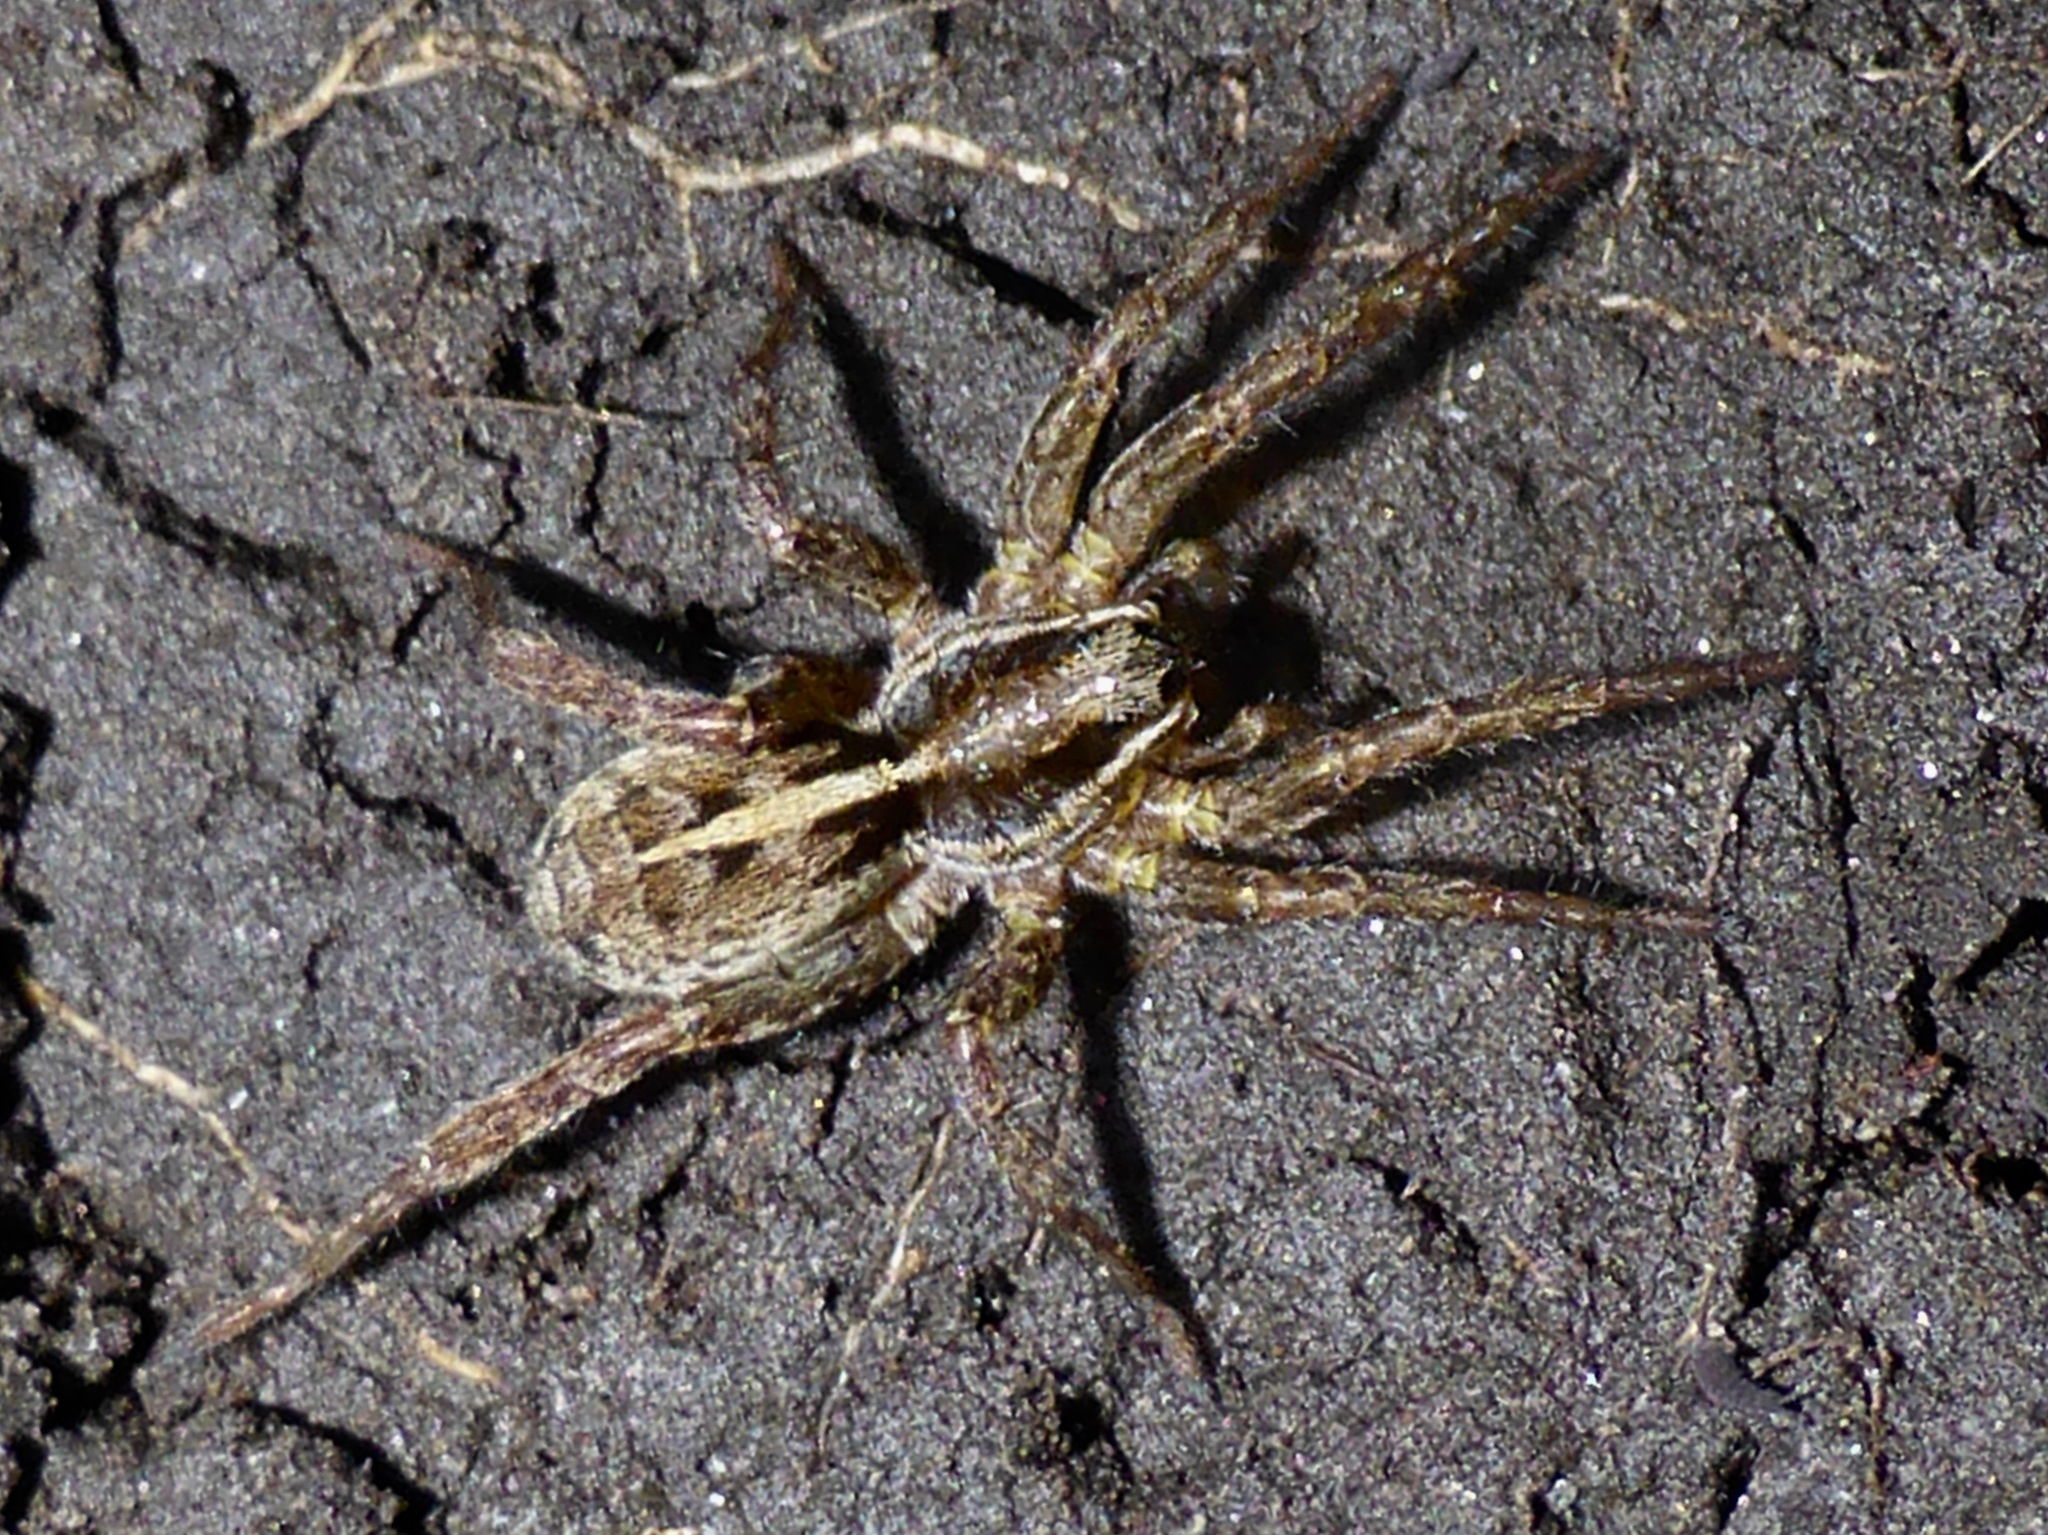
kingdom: Animalia
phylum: Arthropoda
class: Arachnida
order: Araneae
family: Lycosidae
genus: Anoteropsis
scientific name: Anoteropsis hilaris
